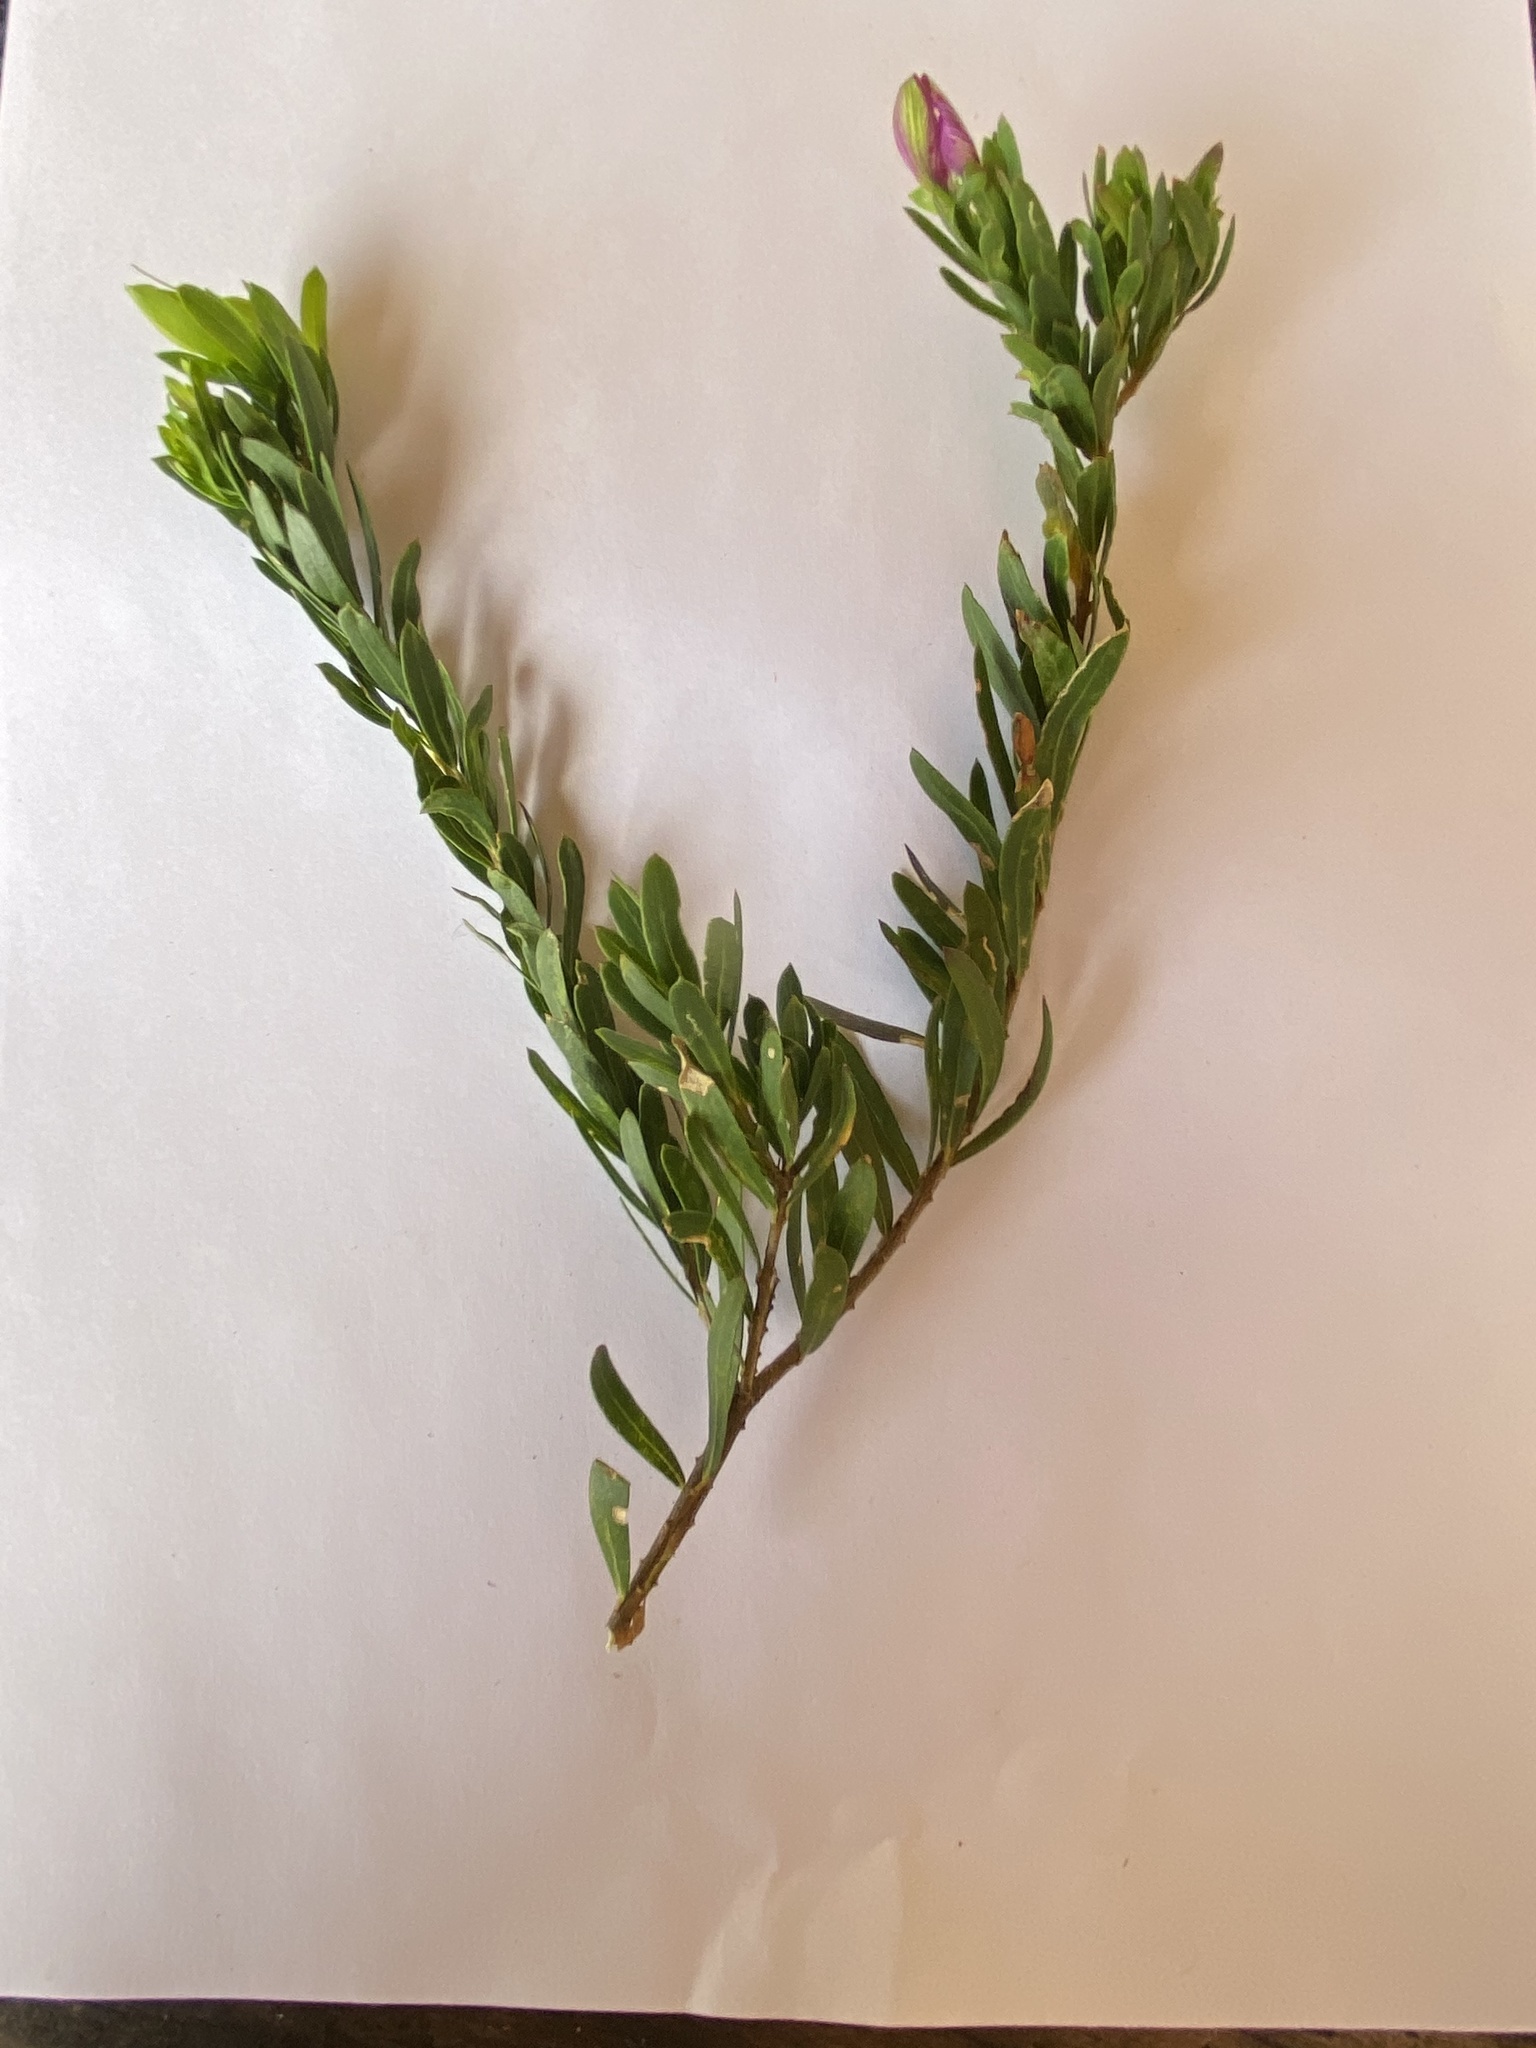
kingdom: Plantae
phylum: Tracheophyta
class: Magnoliopsida
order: Fabales
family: Polygalaceae
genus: Polygala
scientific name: Polygala myrtifolia
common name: Myrtle-leaf milkwort
